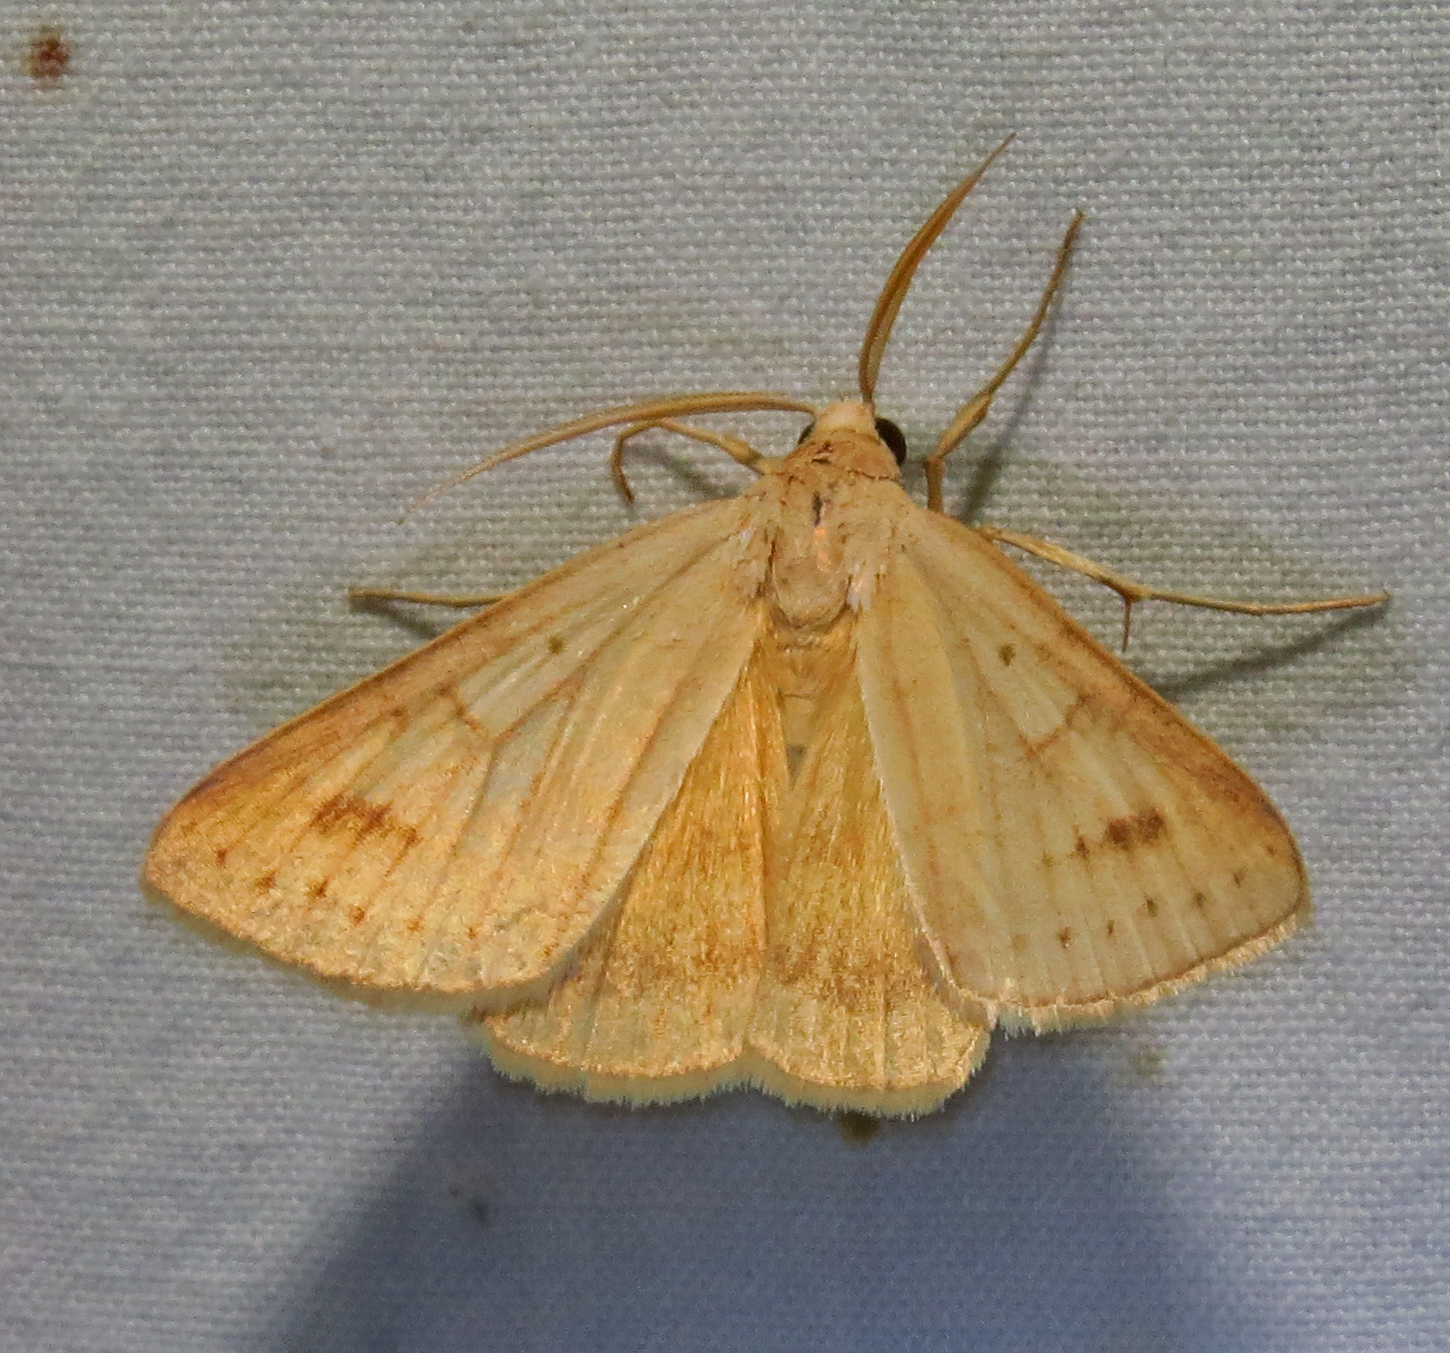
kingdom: Animalia
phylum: Arthropoda
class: Insecta
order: Lepidoptera
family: Erebidae
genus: Caenurgia
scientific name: Caenurgia chloropha
